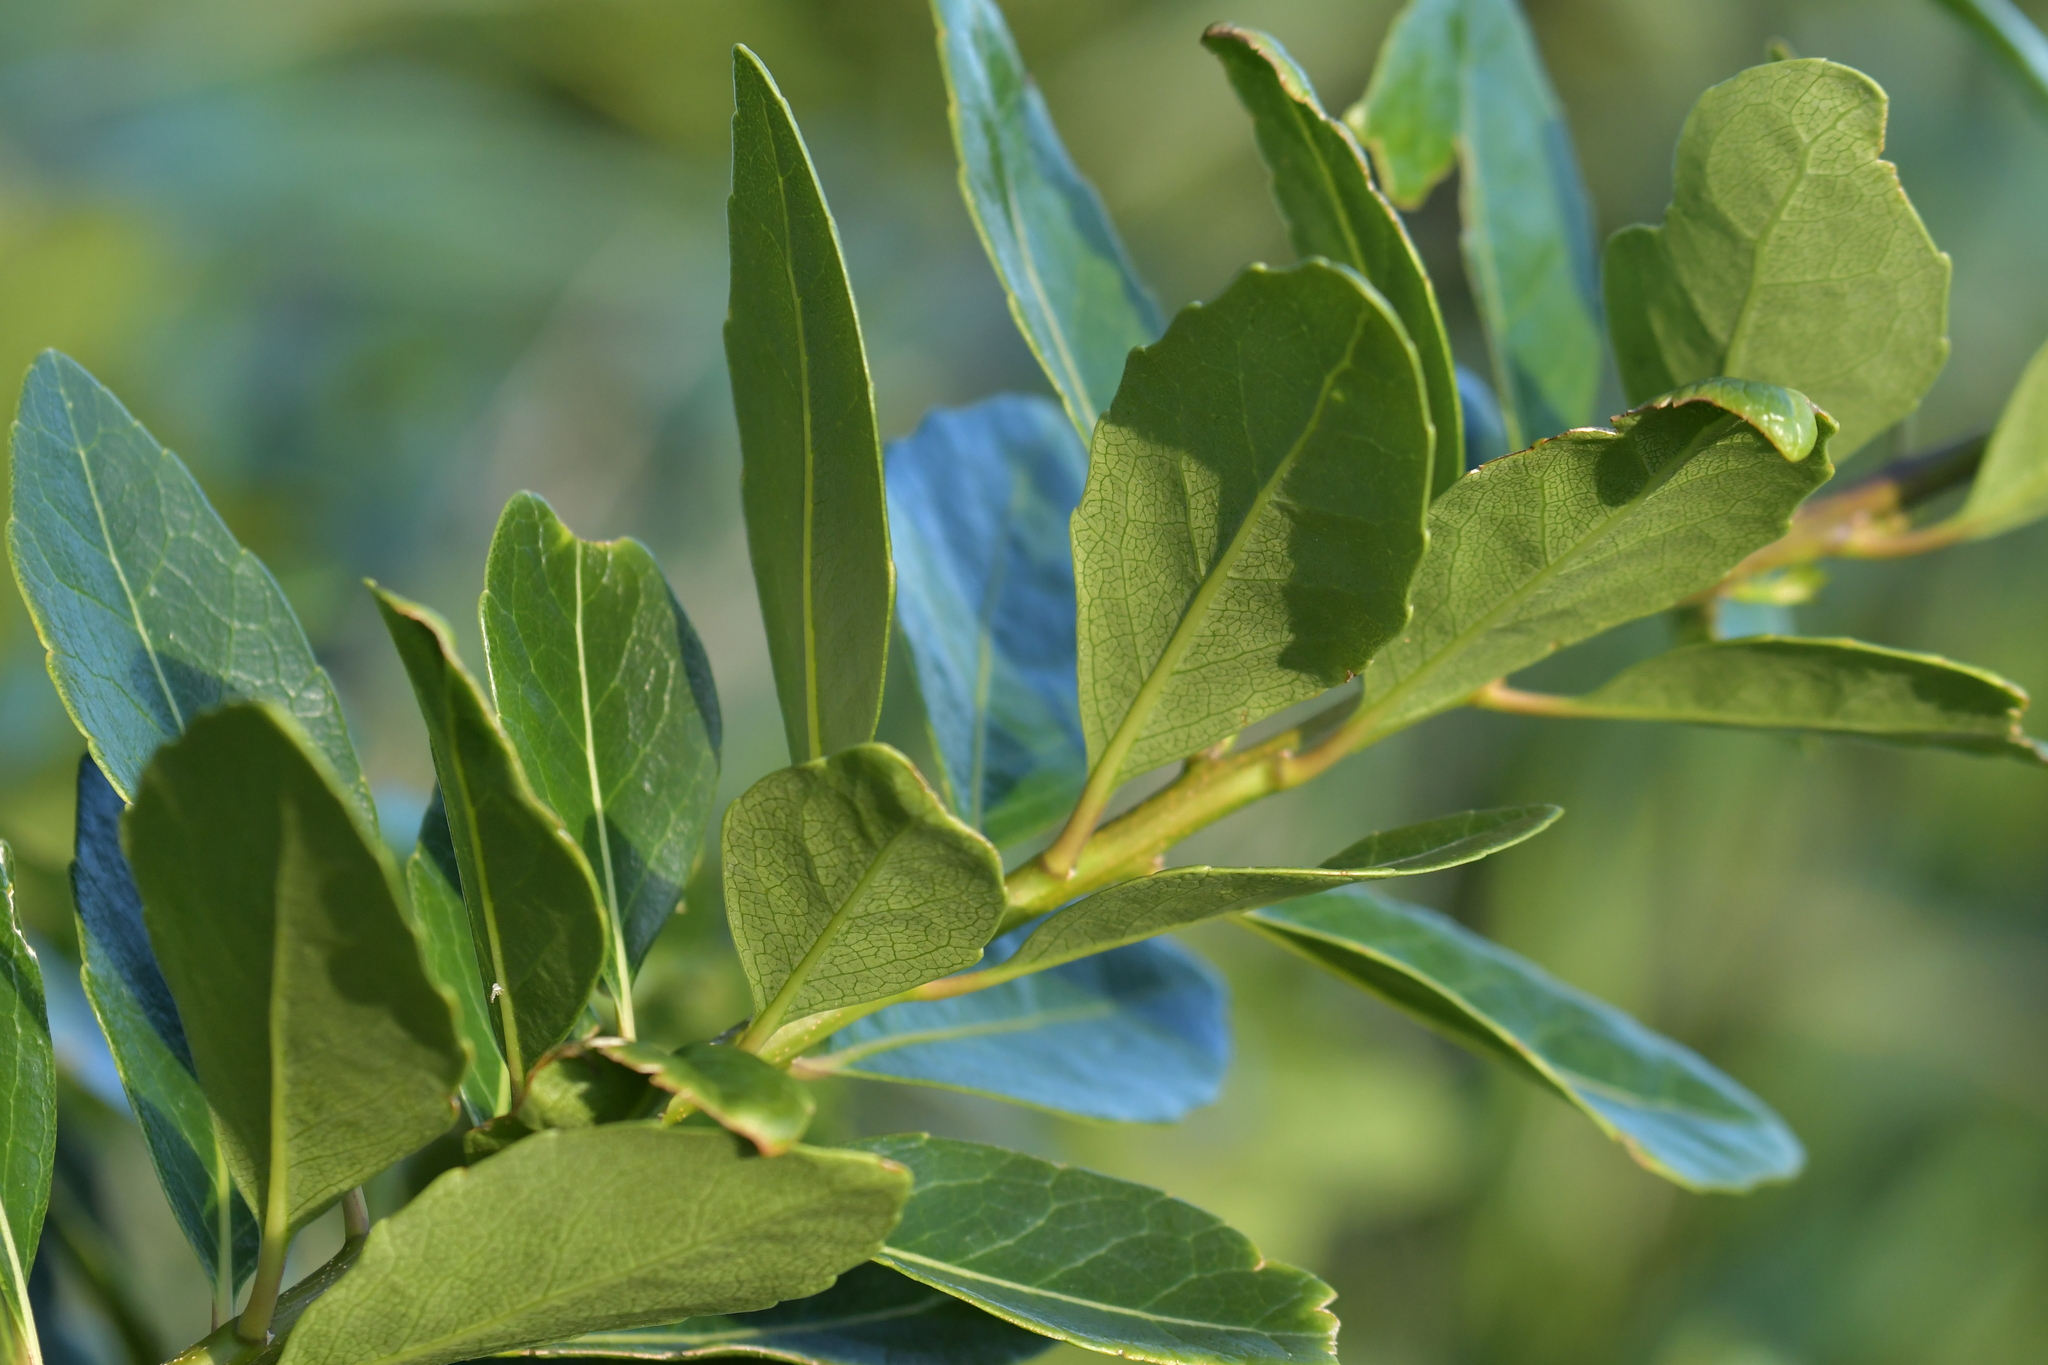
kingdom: Plantae
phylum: Tracheophyta
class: Magnoliopsida
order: Malpighiales
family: Violaceae
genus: Melicytus
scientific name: Melicytus novae-zelandiae
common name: Coastal mahoe
